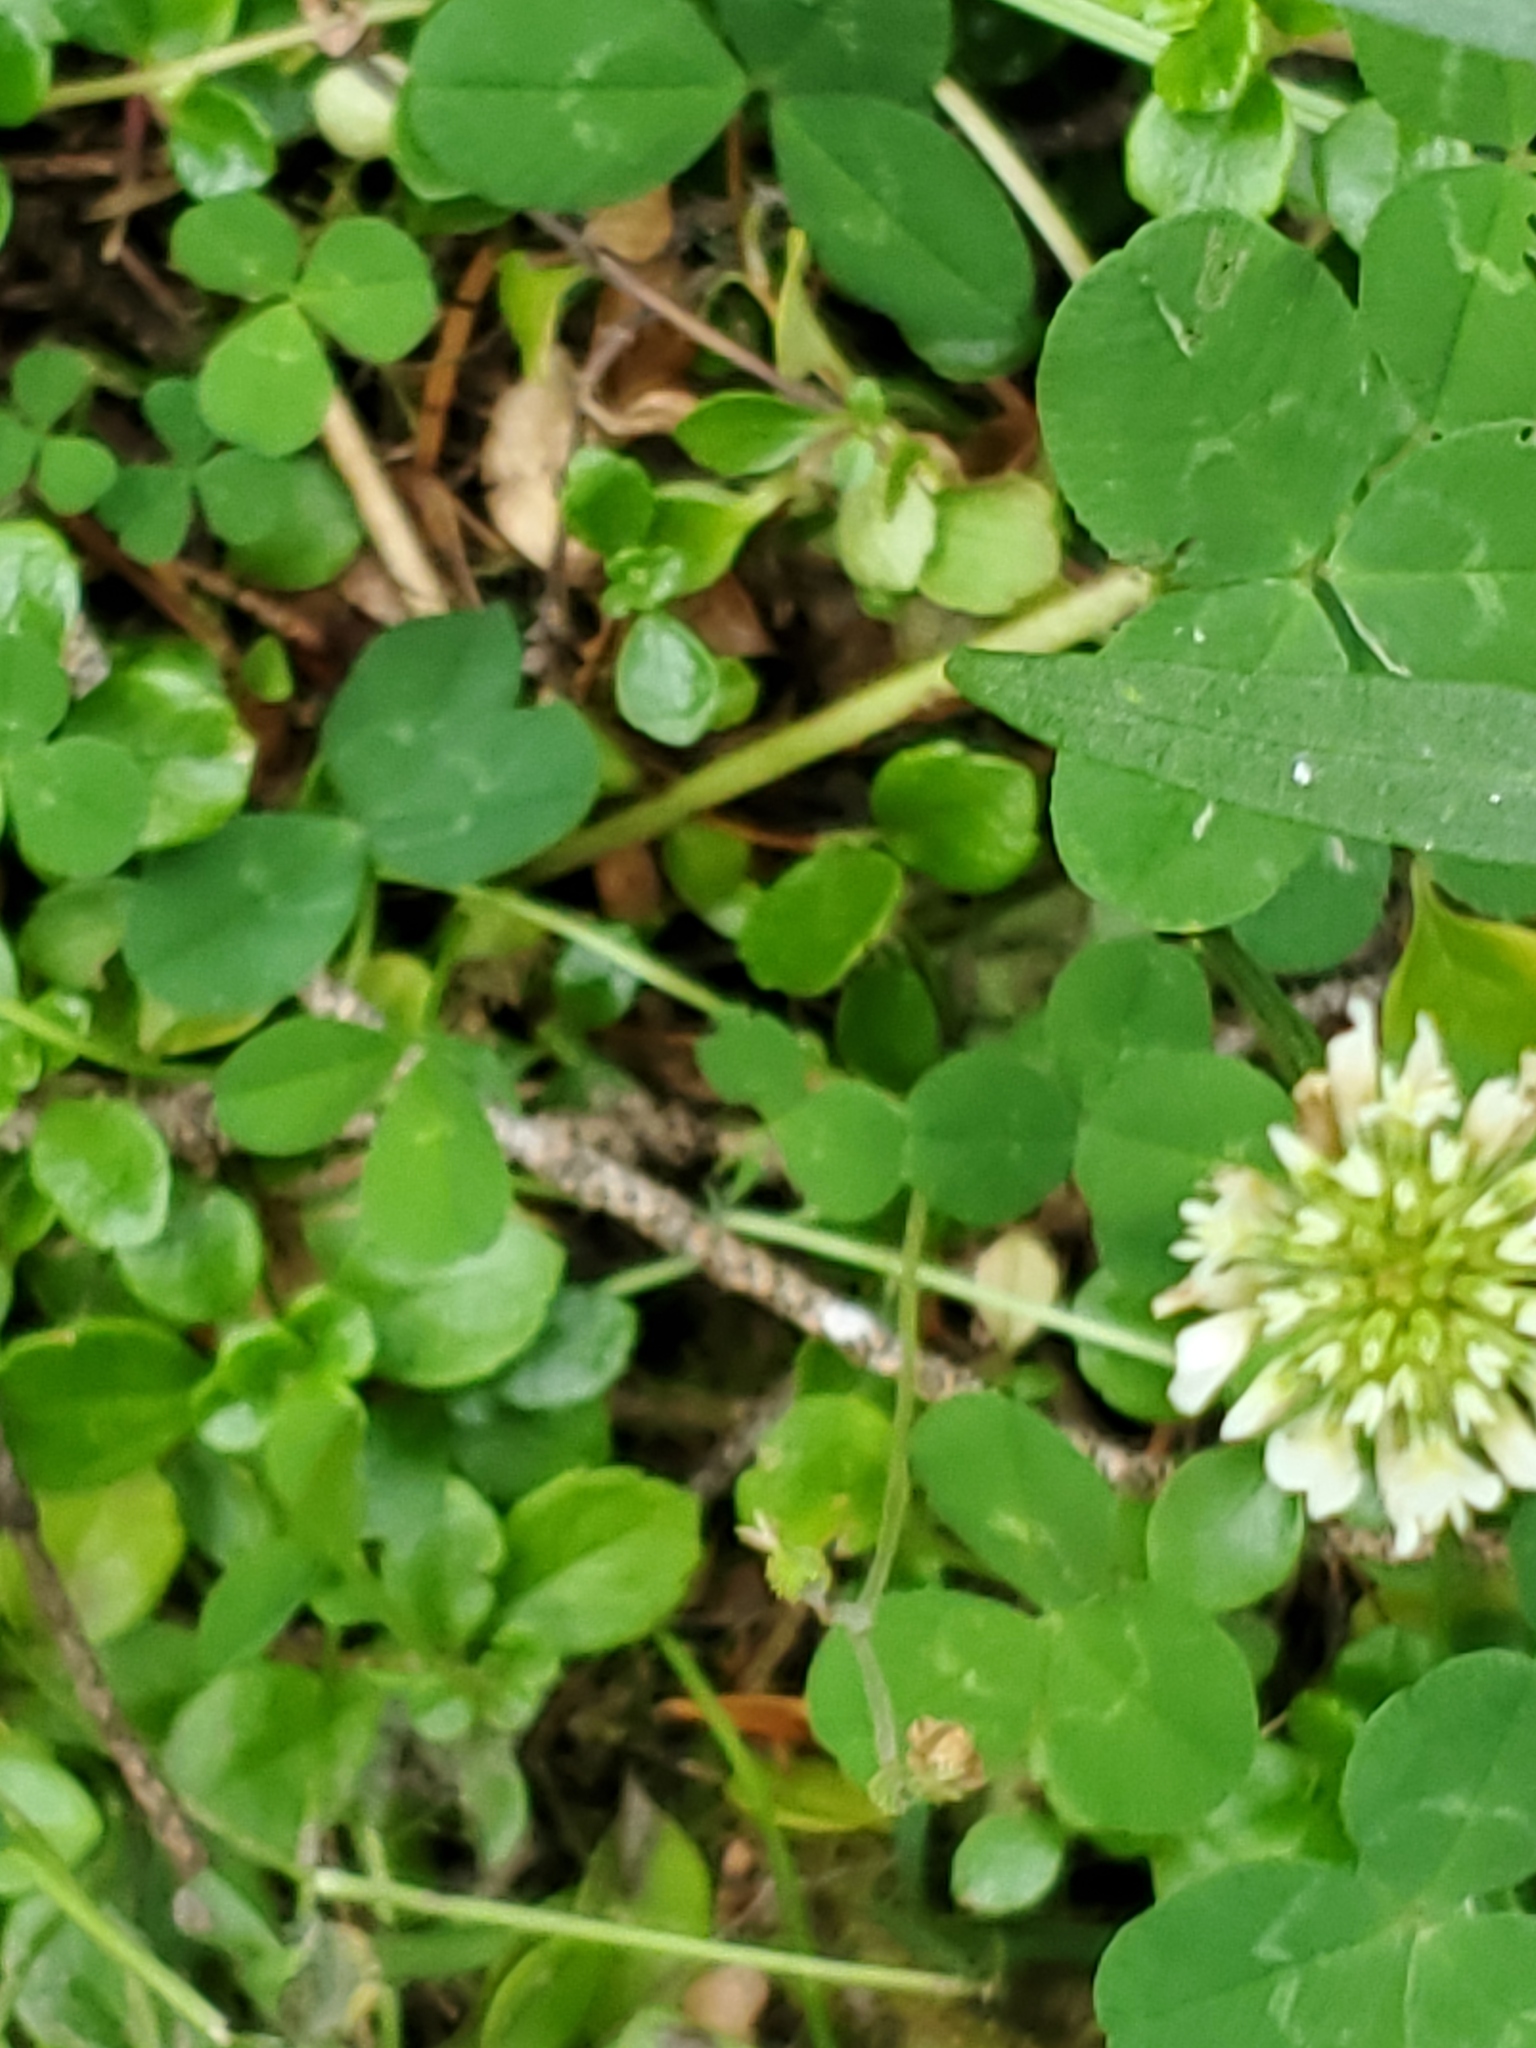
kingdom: Plantae
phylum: Tracheophyta
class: Magnoliopsida
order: Fabales
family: Fabaceae
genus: Trifolium
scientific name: Trifolium repens
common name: White clover
